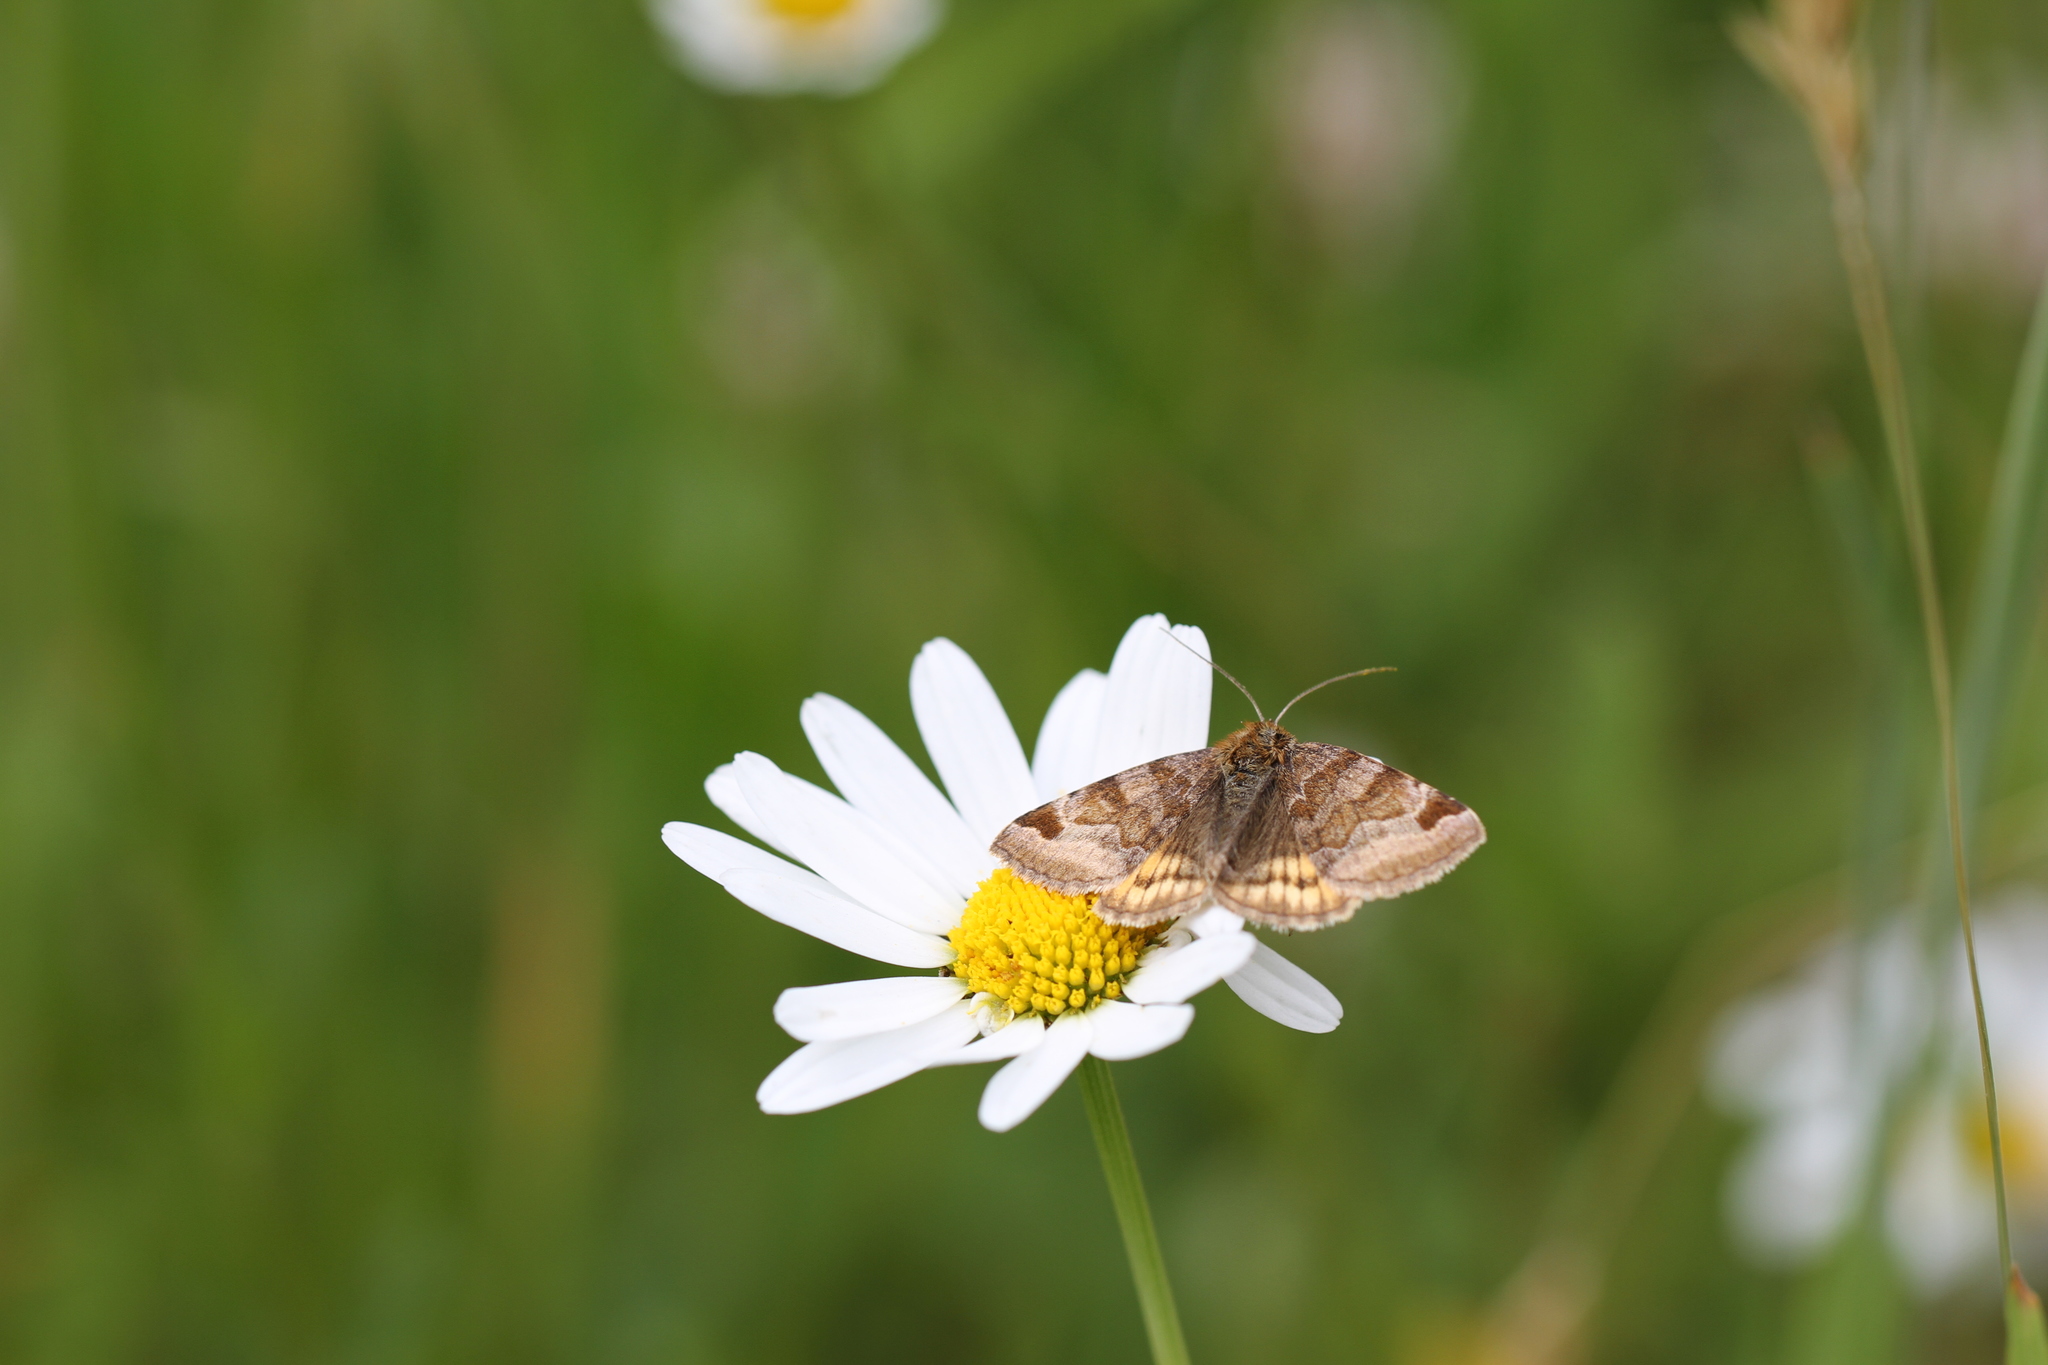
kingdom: Animalia
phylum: Arthropoda
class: Insecta
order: Lepidoptera
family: Erebidae
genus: Euclidia
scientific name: Euclidia glyphica
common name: Burnet companion
